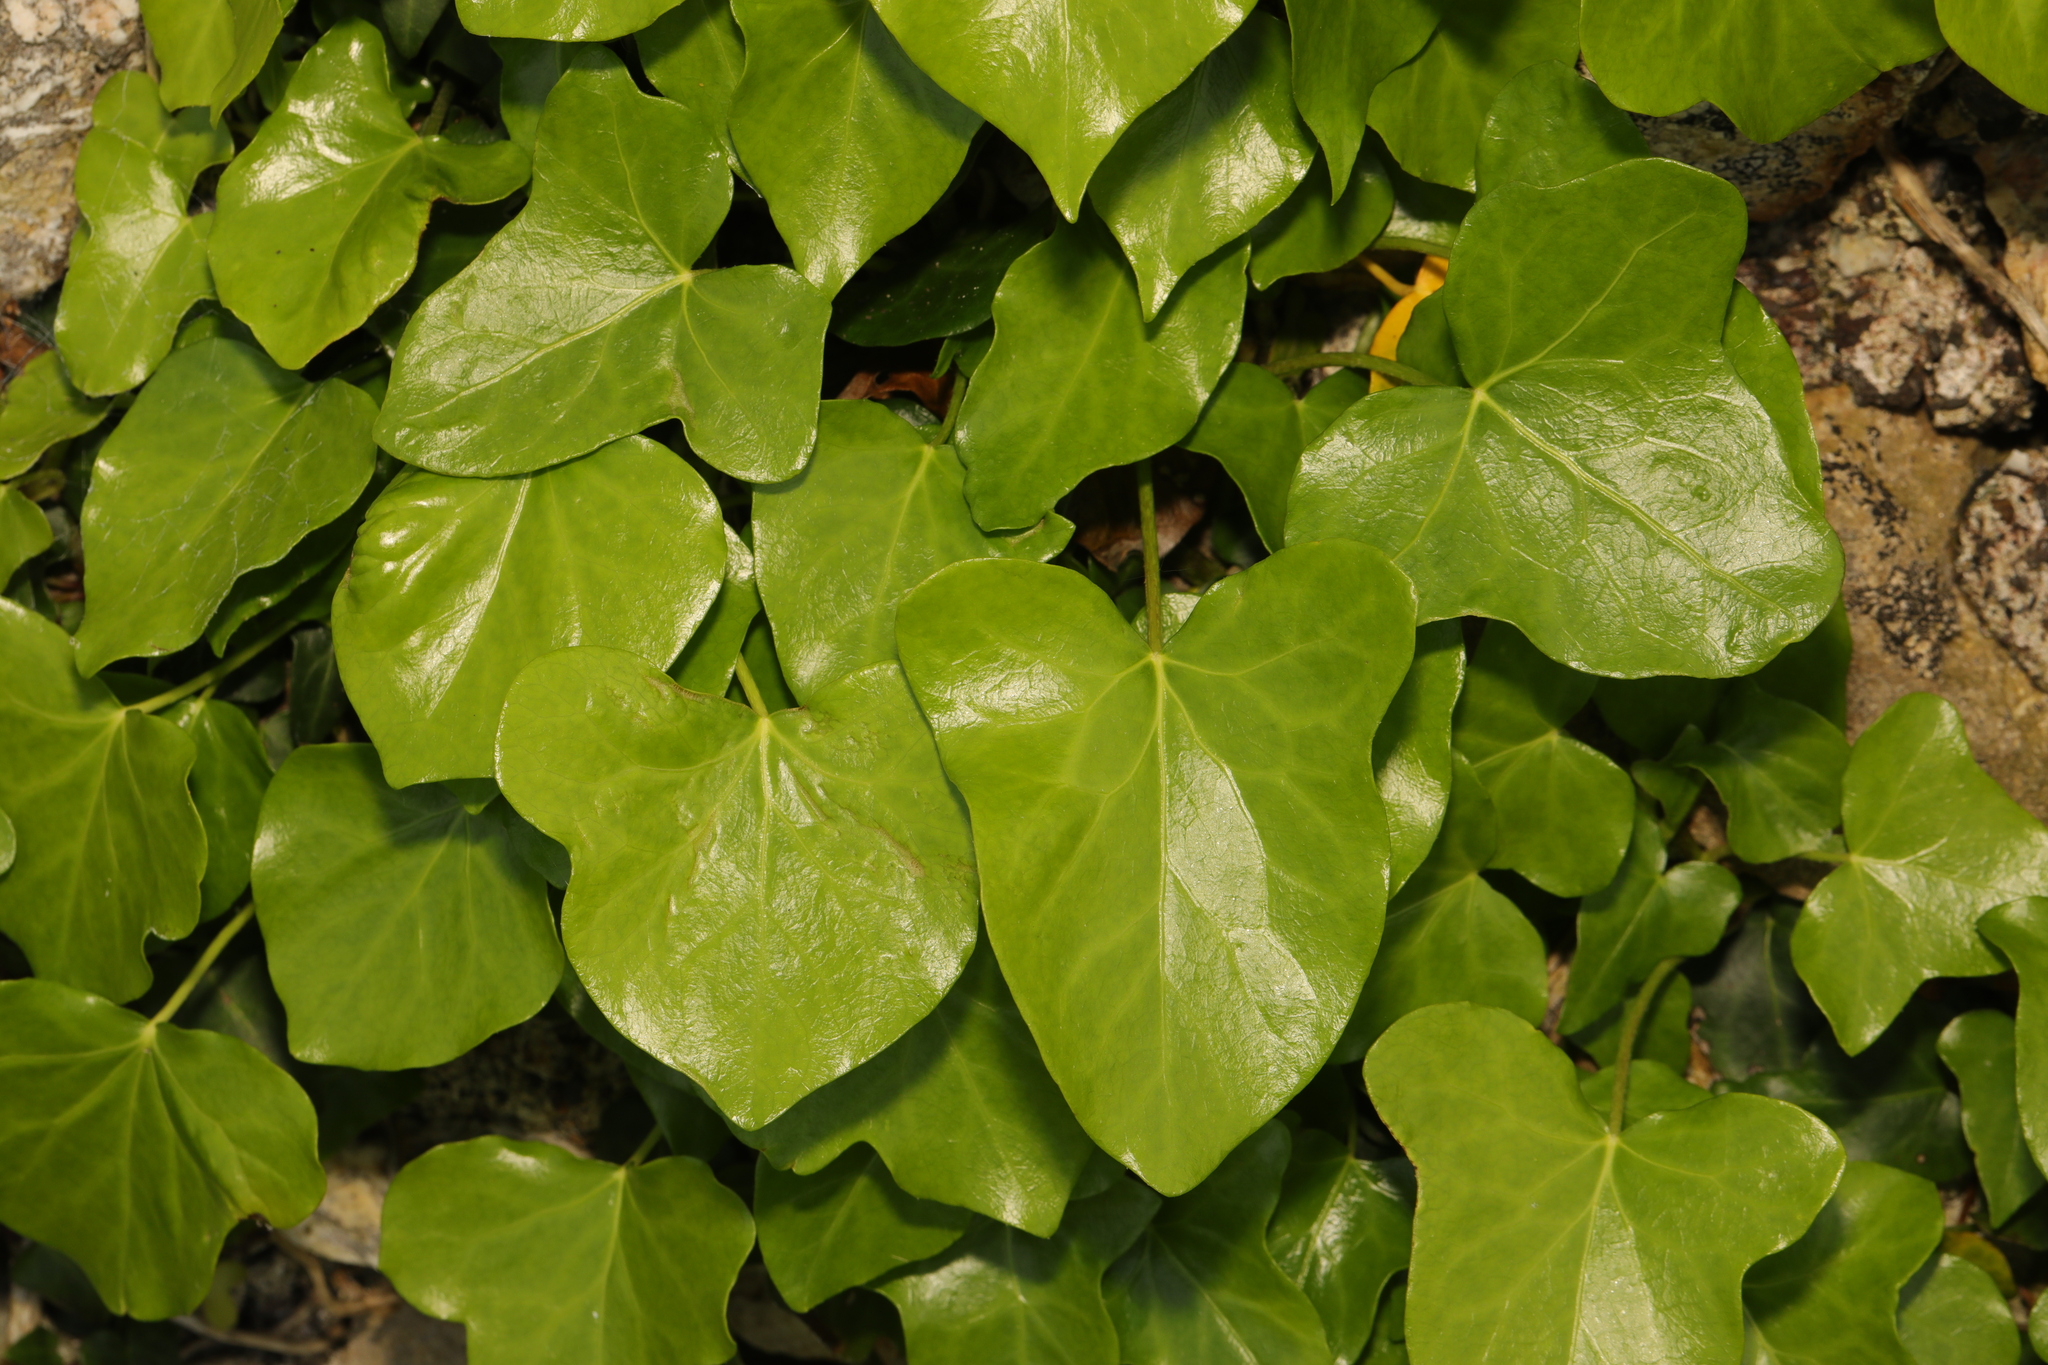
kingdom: Plantae
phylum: Tracheophyta
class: Magnoliopsida
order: Apiales
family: Araliaceae
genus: Hedera
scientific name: Hedera helix
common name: Ivy
